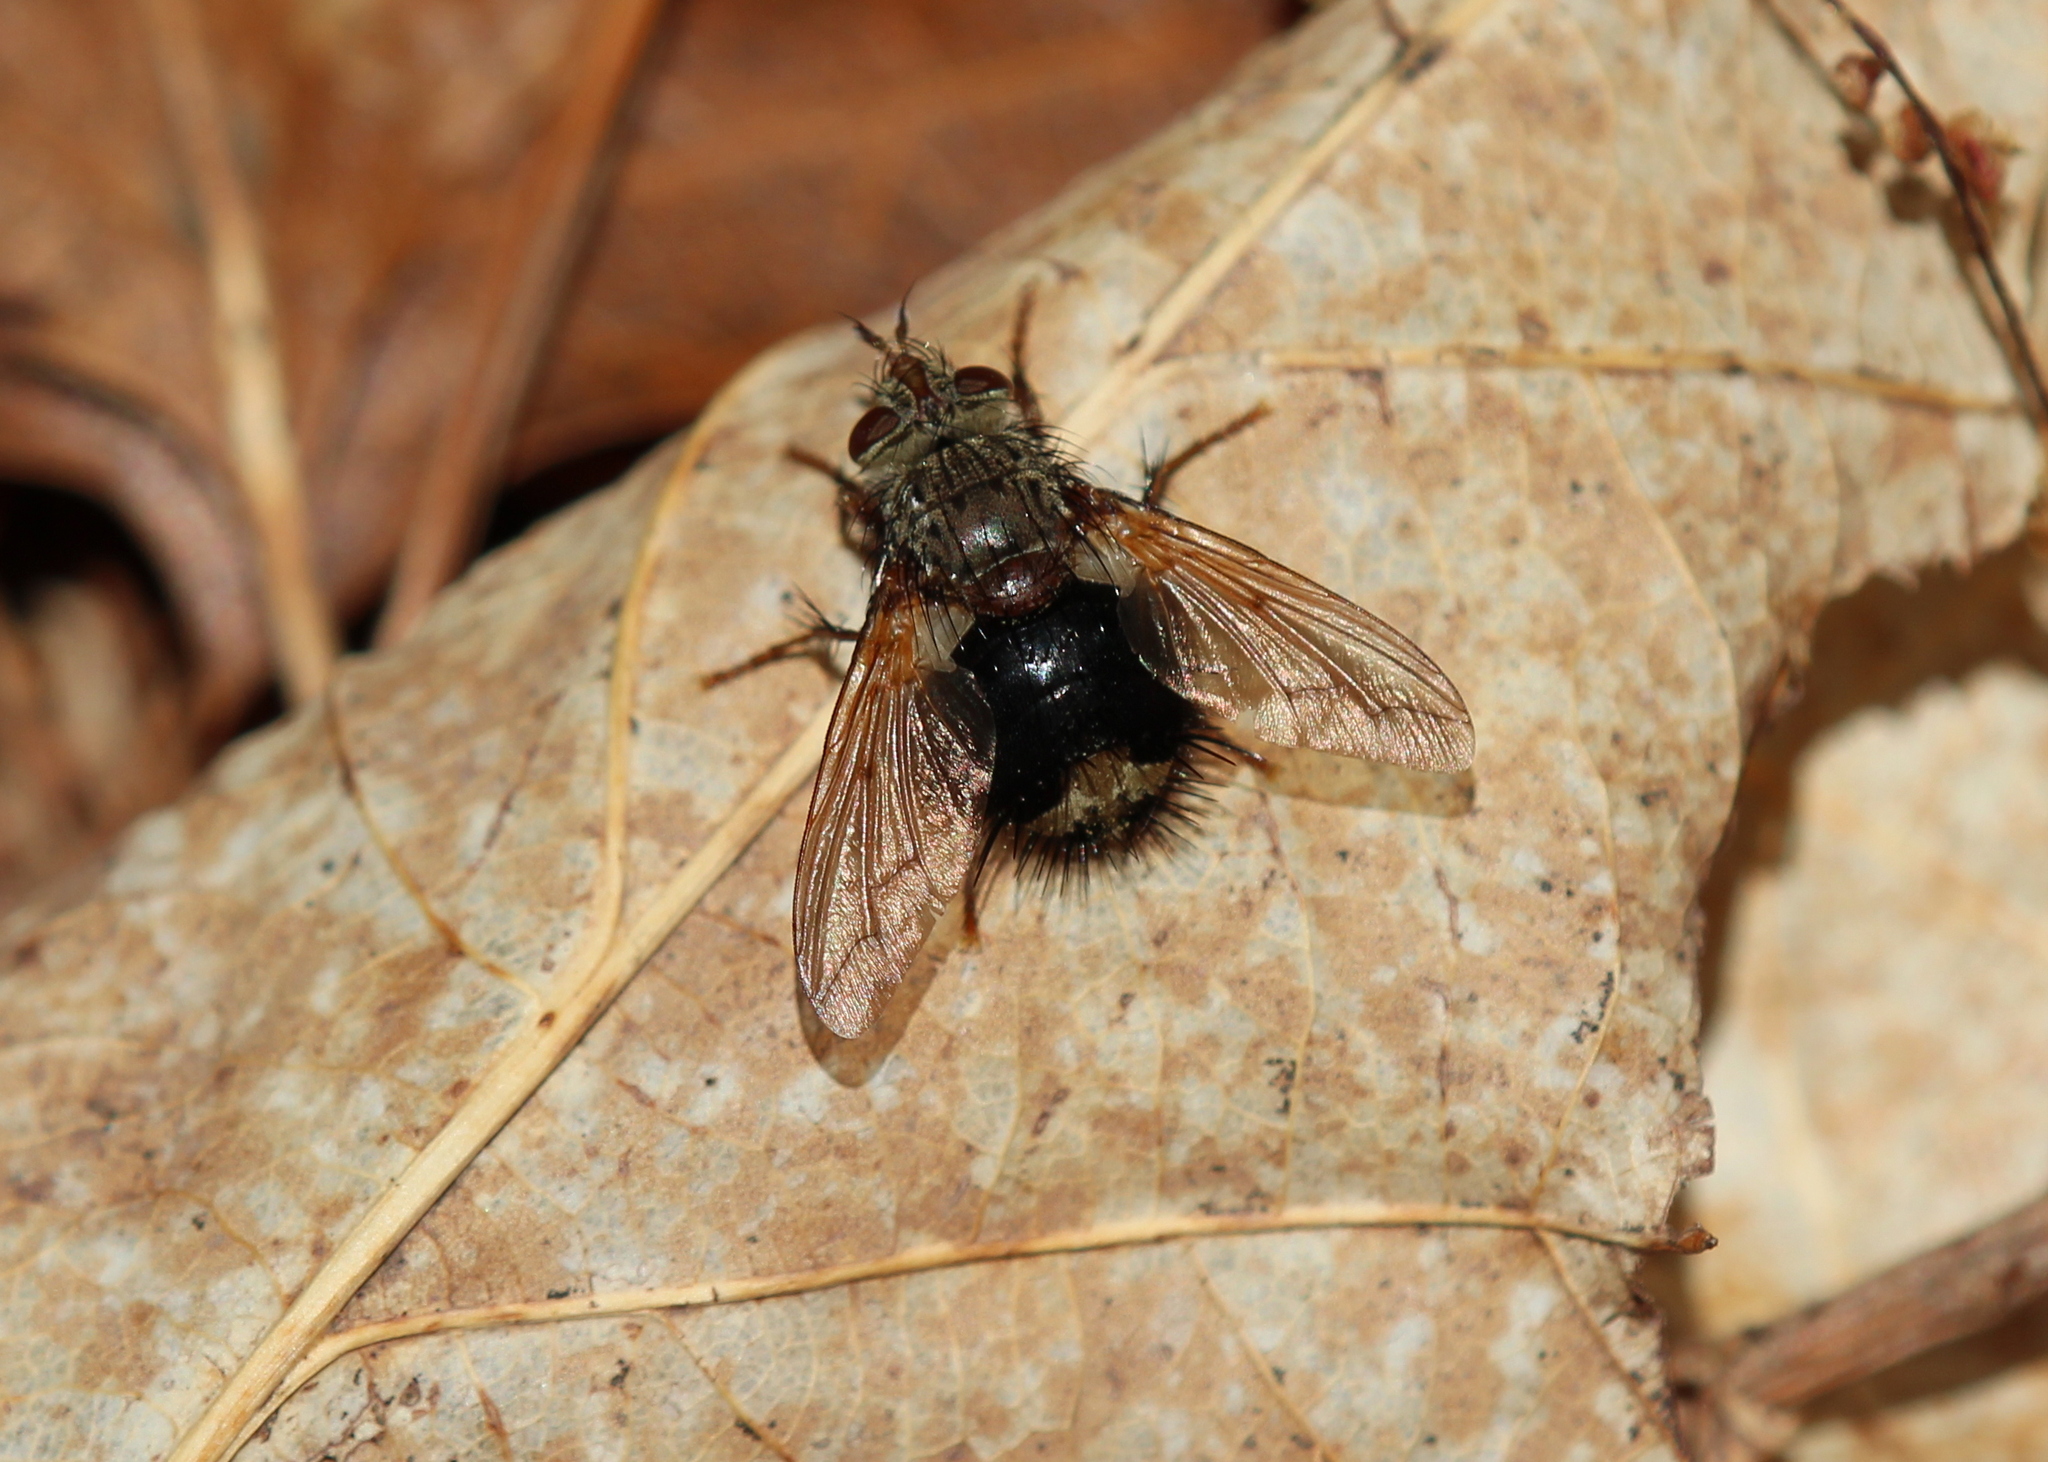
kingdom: Animalia
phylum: Arthropoda
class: Insecta
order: Diptera
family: Tachinidae
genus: Epalpus
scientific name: Epalpus signifer
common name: Early tachinid fly
